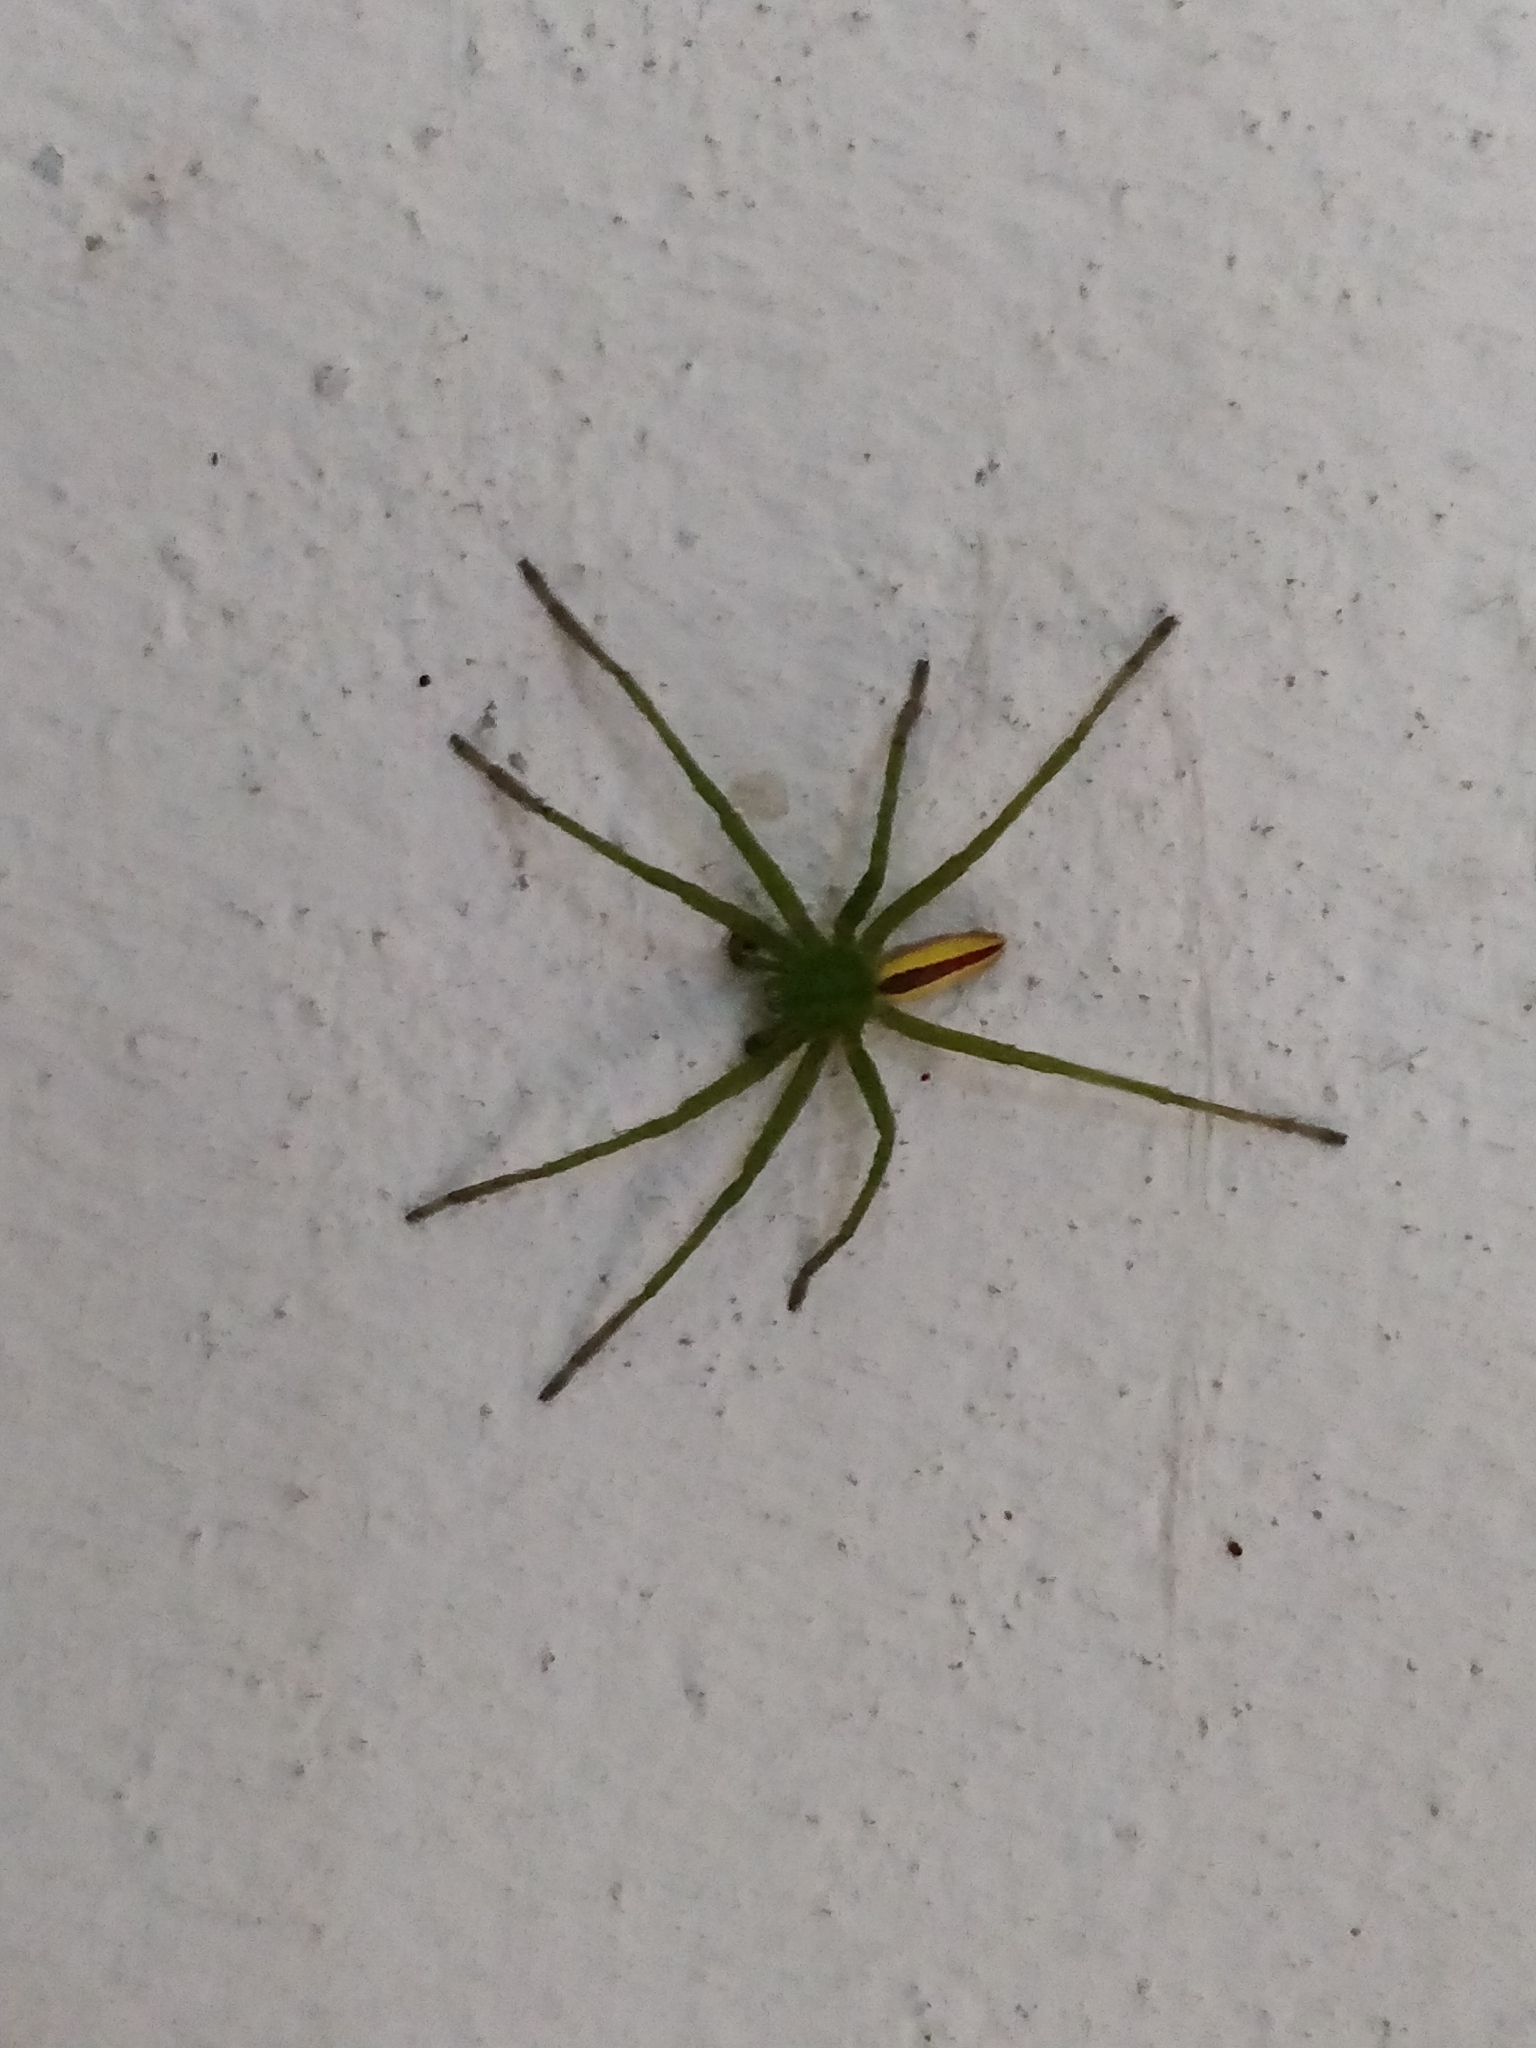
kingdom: Animalia
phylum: Arthropoda
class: Arachnida
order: Araneae
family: Sparassidae
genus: Micrommata
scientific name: Micrommata virescens
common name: Green spider
